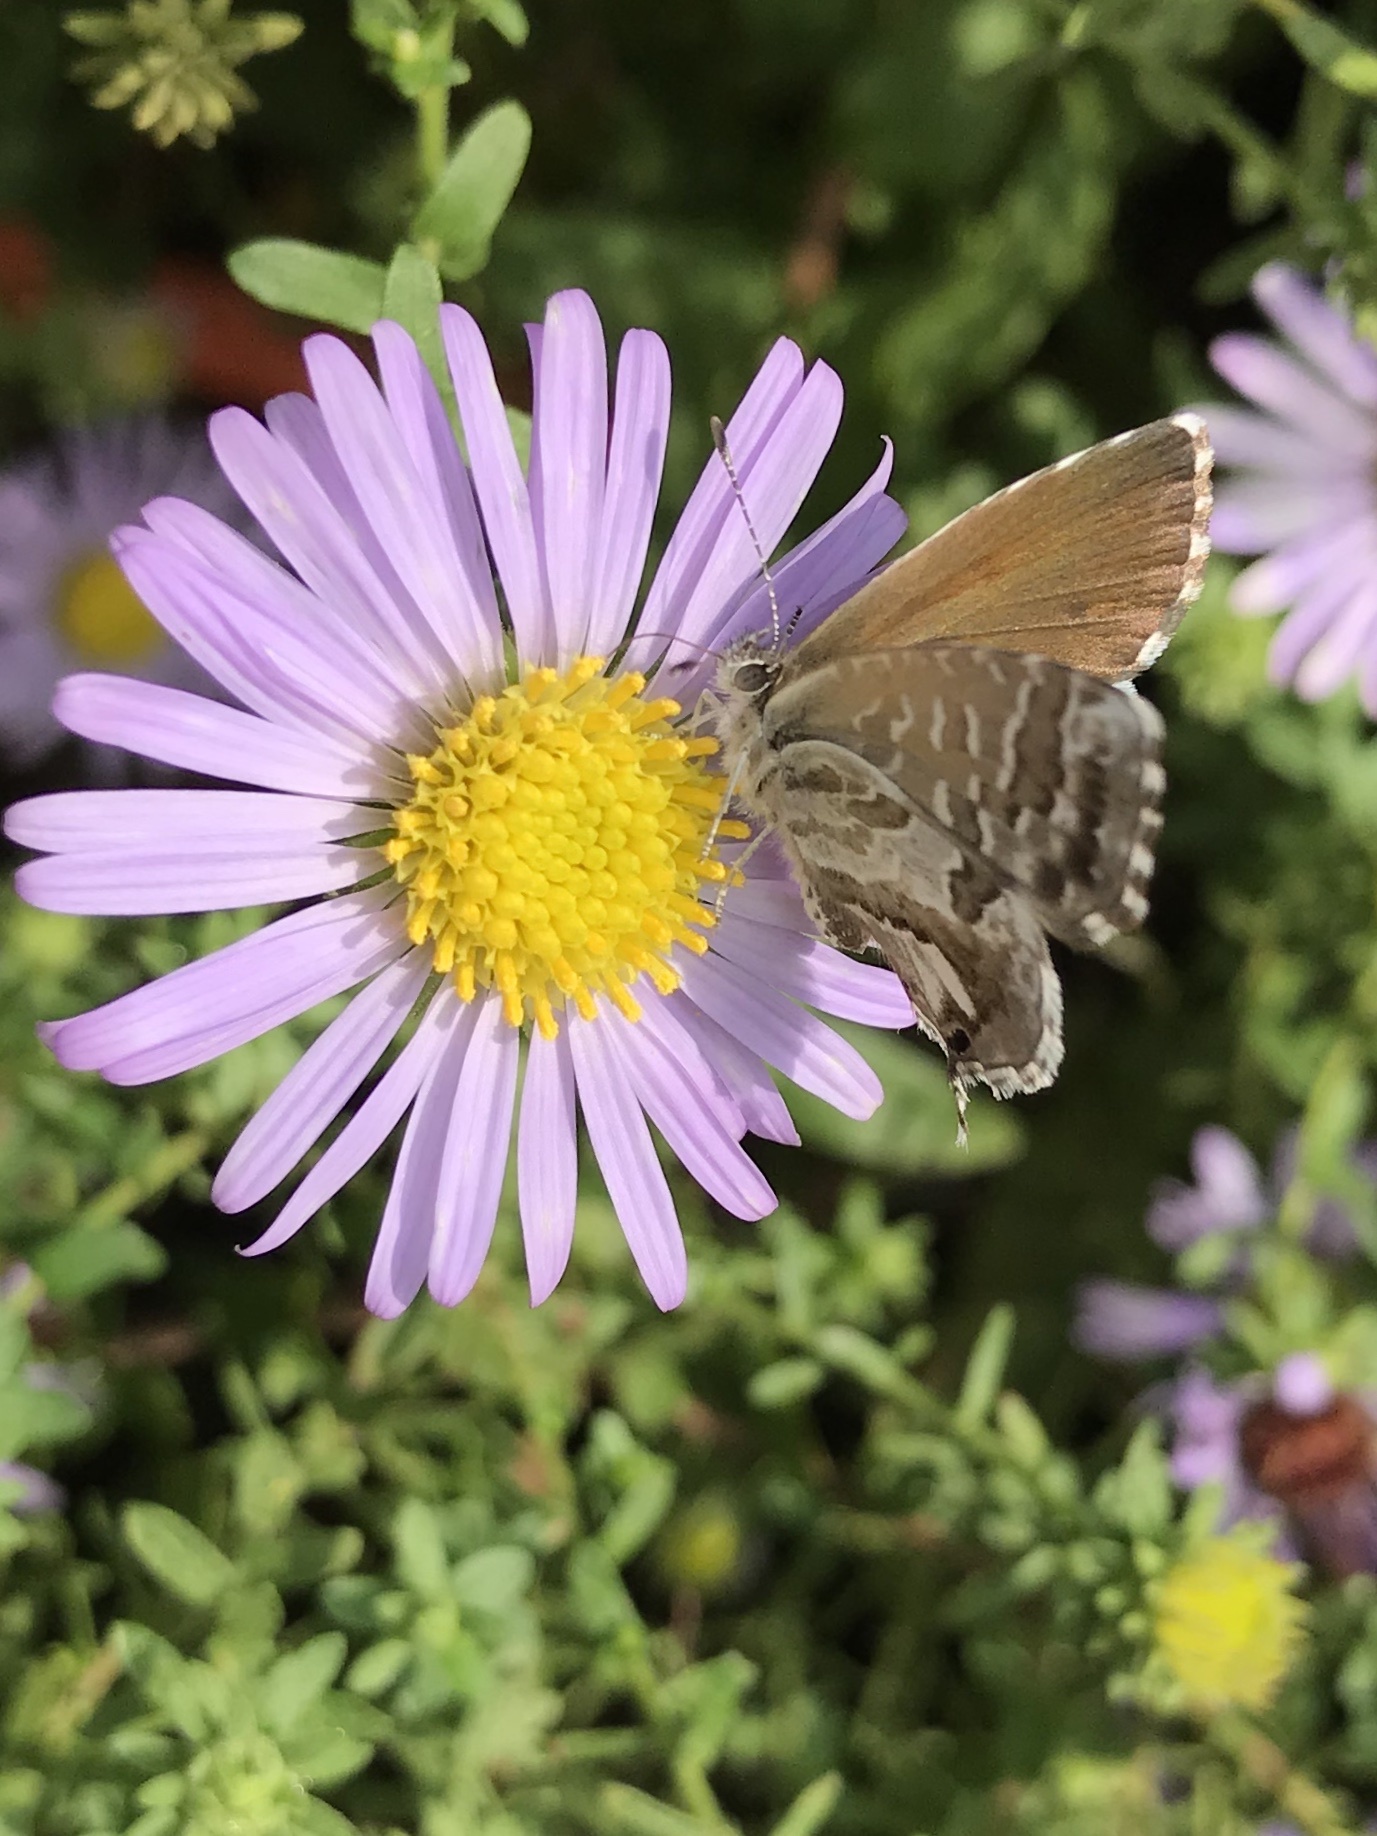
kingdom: Animalia
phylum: Arthropoda
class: Insecta
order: Lepidoptera
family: Lycaenidae
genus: Cacyreus
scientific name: Cacyreus marshalli
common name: Geranium bronze
